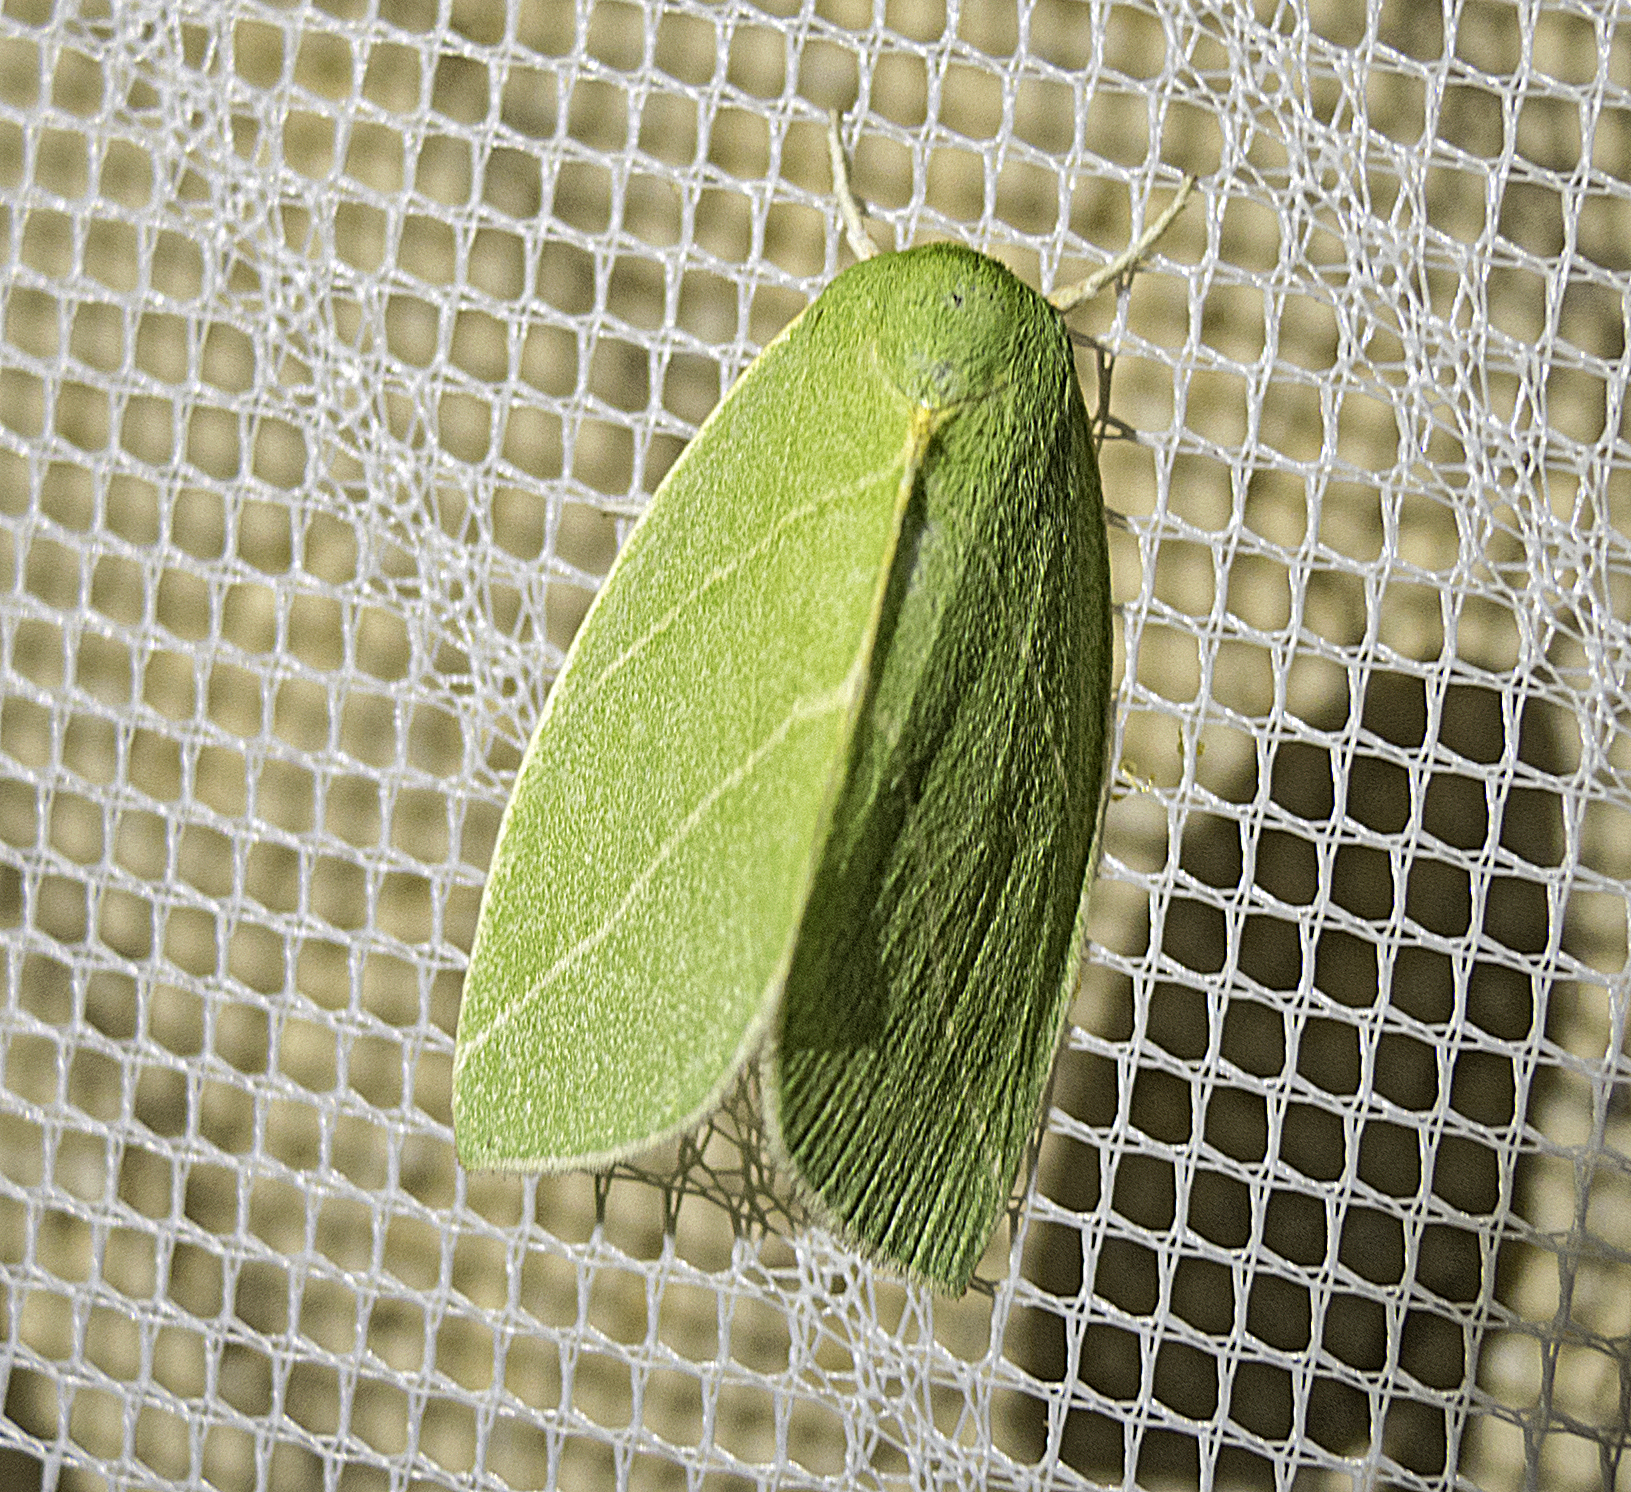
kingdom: Animalia
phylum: Arthropoda
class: Insecta
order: Lepidoptera
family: Nolidae
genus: Bena
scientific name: Bena bicolorana
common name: Scarce silver-lines
